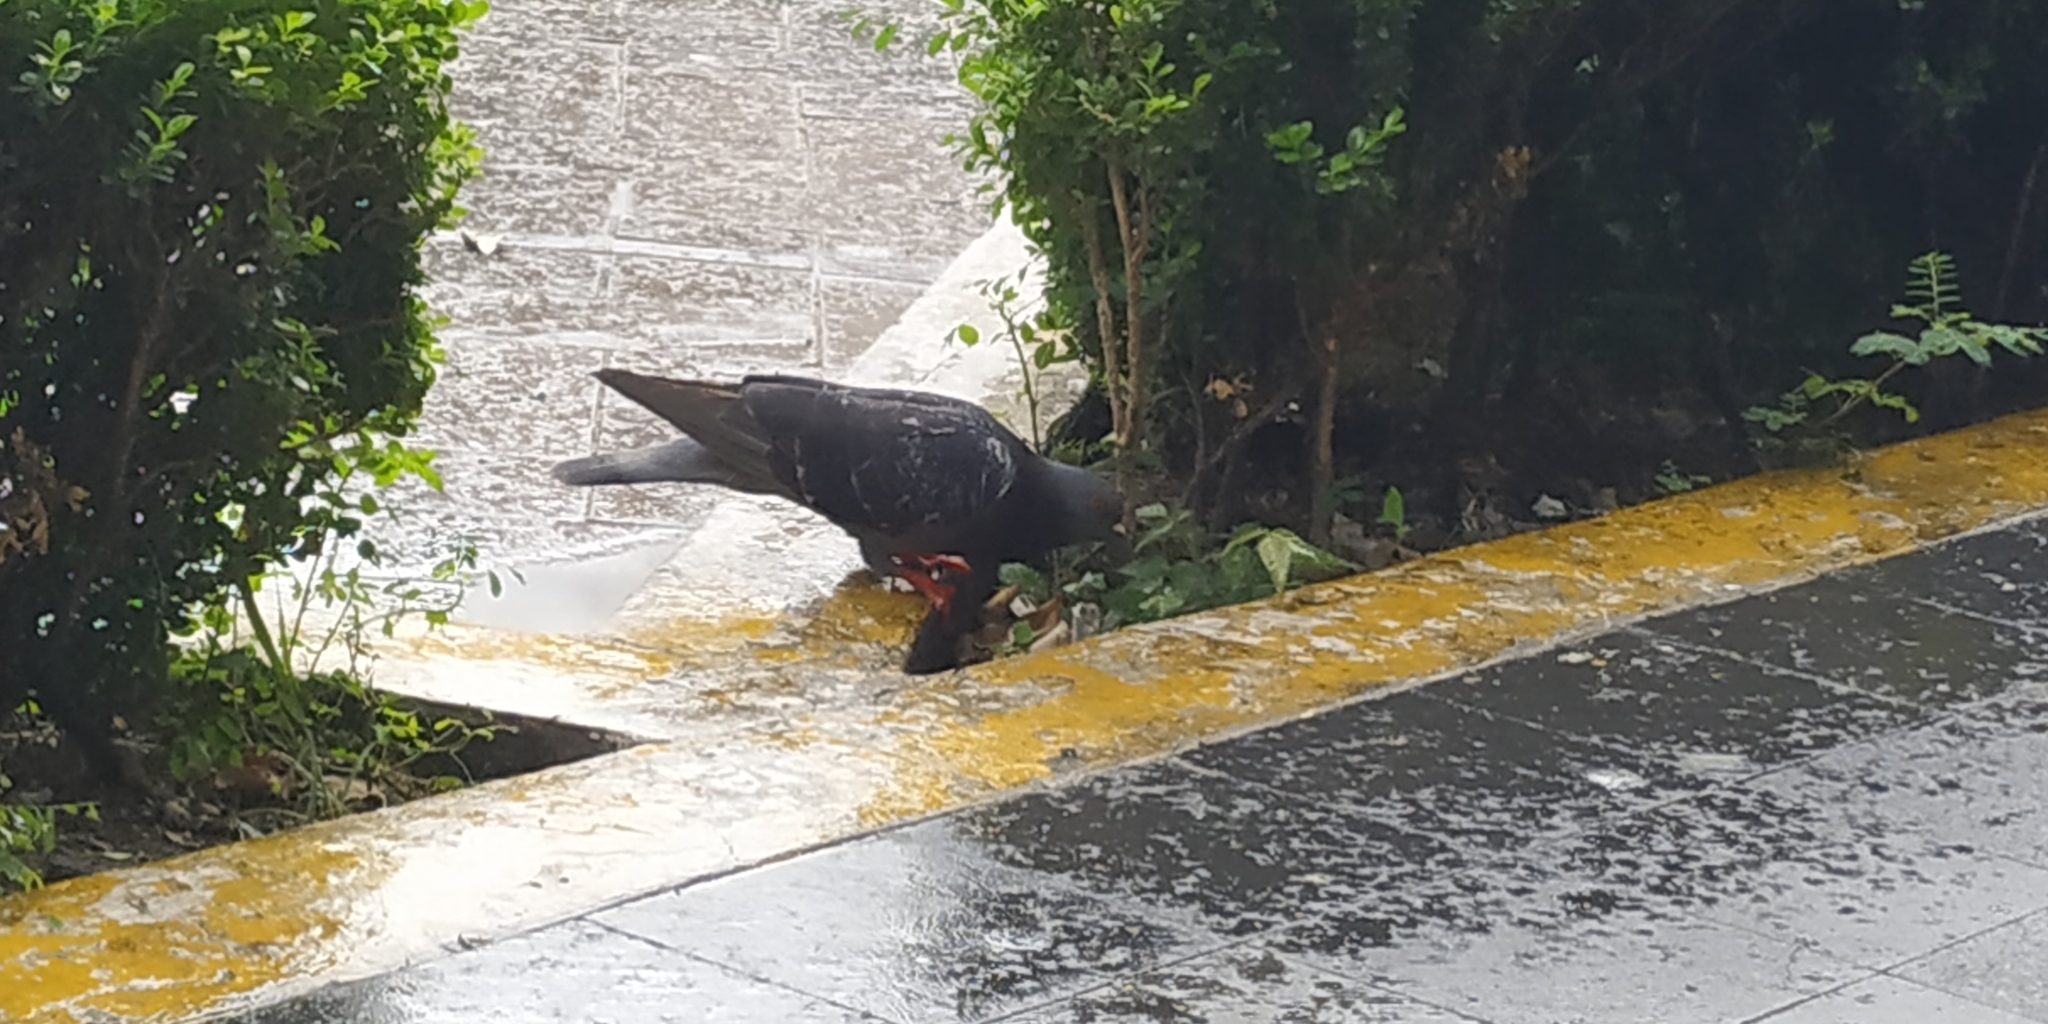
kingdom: Animalia
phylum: Chordata
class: Aves
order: Columbiformes
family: Columbidae
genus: Columba
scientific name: Columba livia
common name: Rock pigeon
